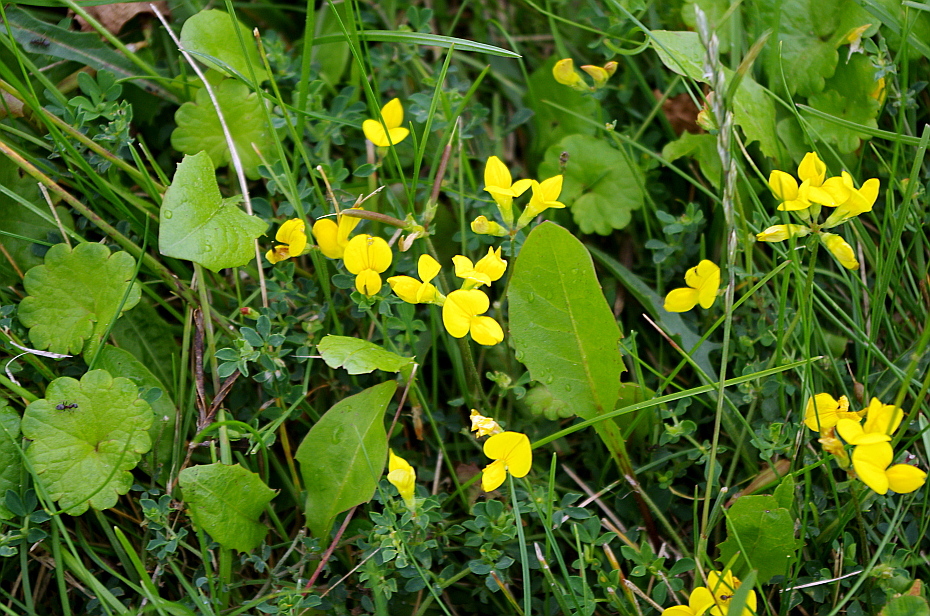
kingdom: Plantae
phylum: Tracheophyta
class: Magnoliopsida
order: Fabales
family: Fabaceae
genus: Lotus
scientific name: Lotus corniculatus
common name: Common bird's-foot-trefoil
